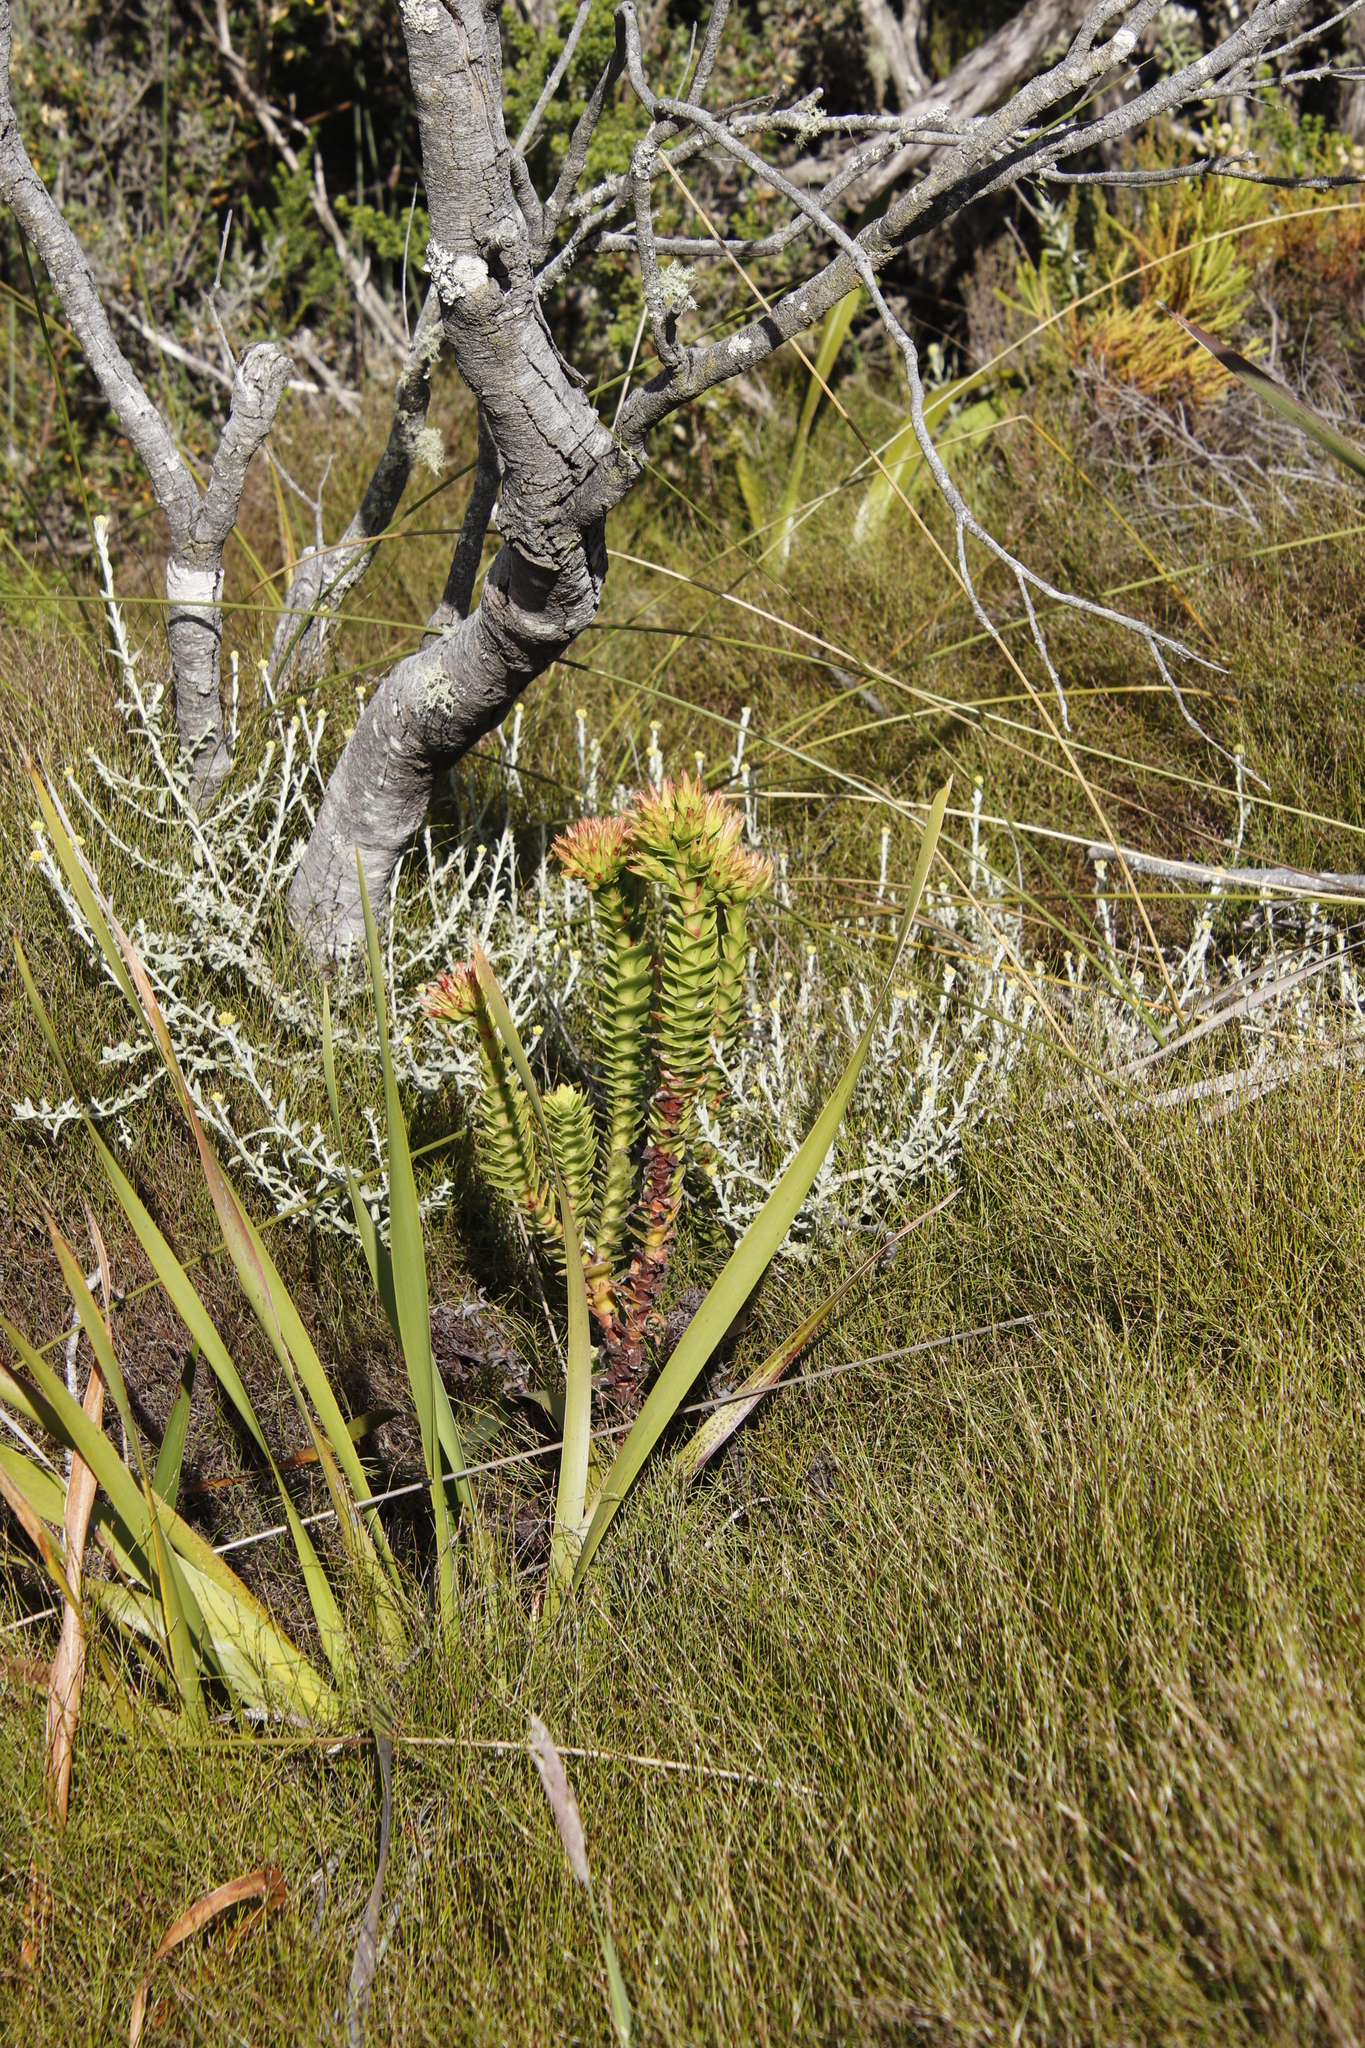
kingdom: Plantae
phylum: Tracheophyta
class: Magnoliopsida
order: Saxifragales
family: Crassulaceae
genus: Crassula
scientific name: Crassula coccinea
